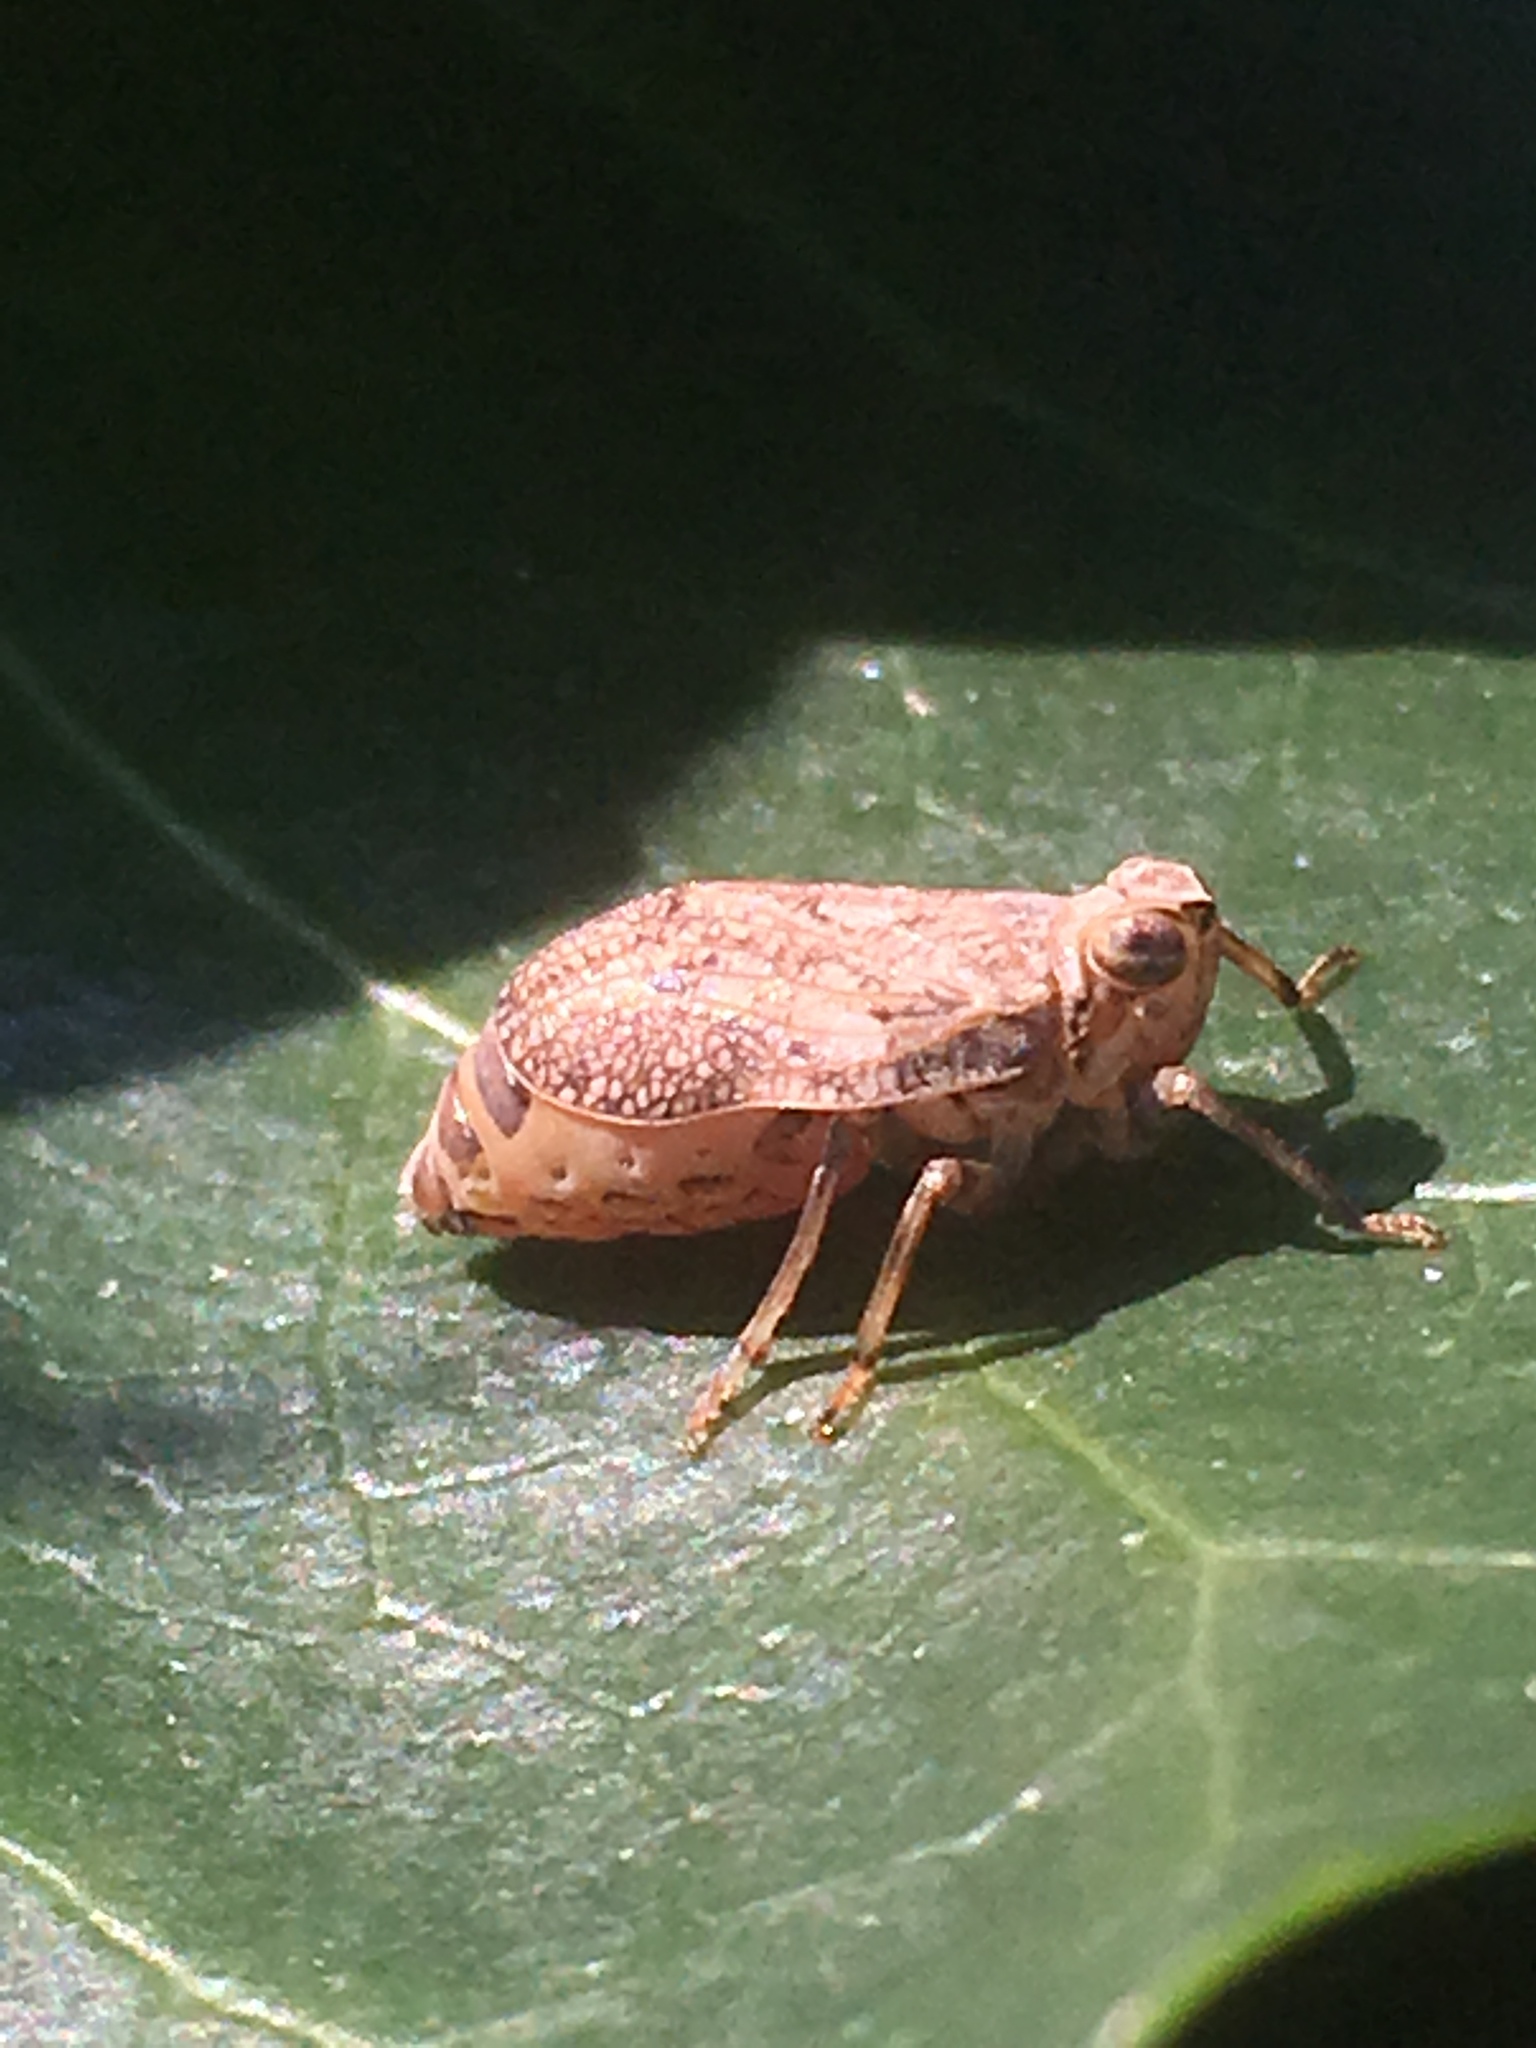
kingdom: Animalia
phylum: Arthropoda
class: Insecta
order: Hemiptera
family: Issidae
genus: Issus
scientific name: Issus coleoptratus
